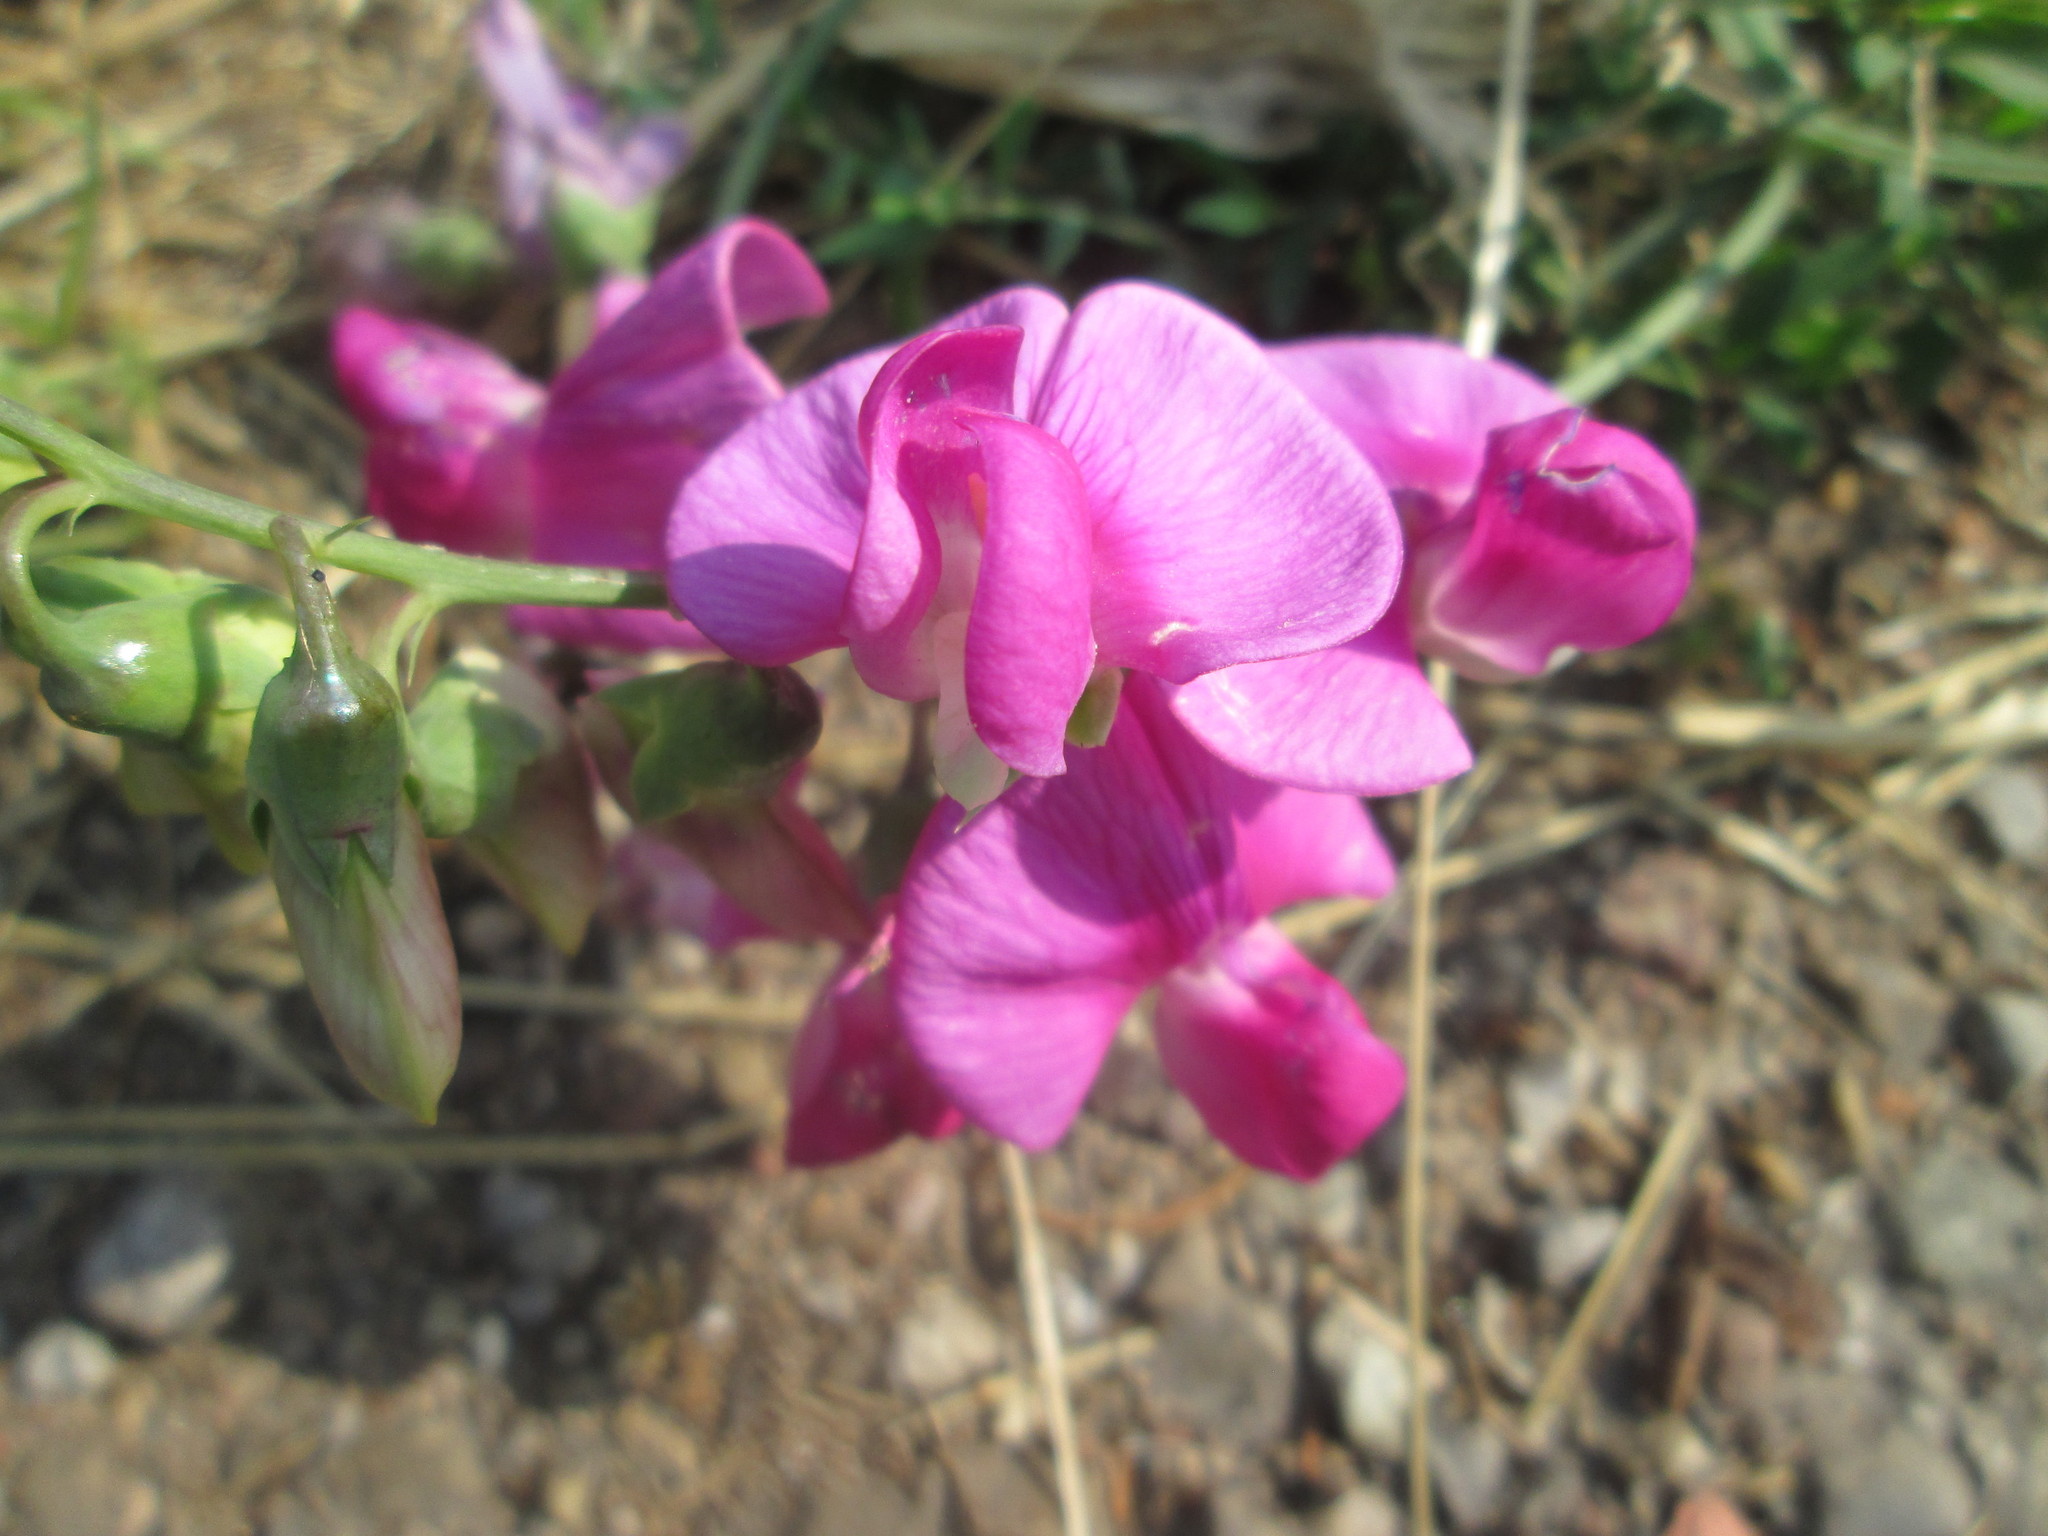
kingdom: Plantae
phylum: Tracheophyta
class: Magnoliopsida
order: Fabales
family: Fabaceae
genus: Lathyrus
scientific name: Lathyrus latifolius
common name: Perennial pea
